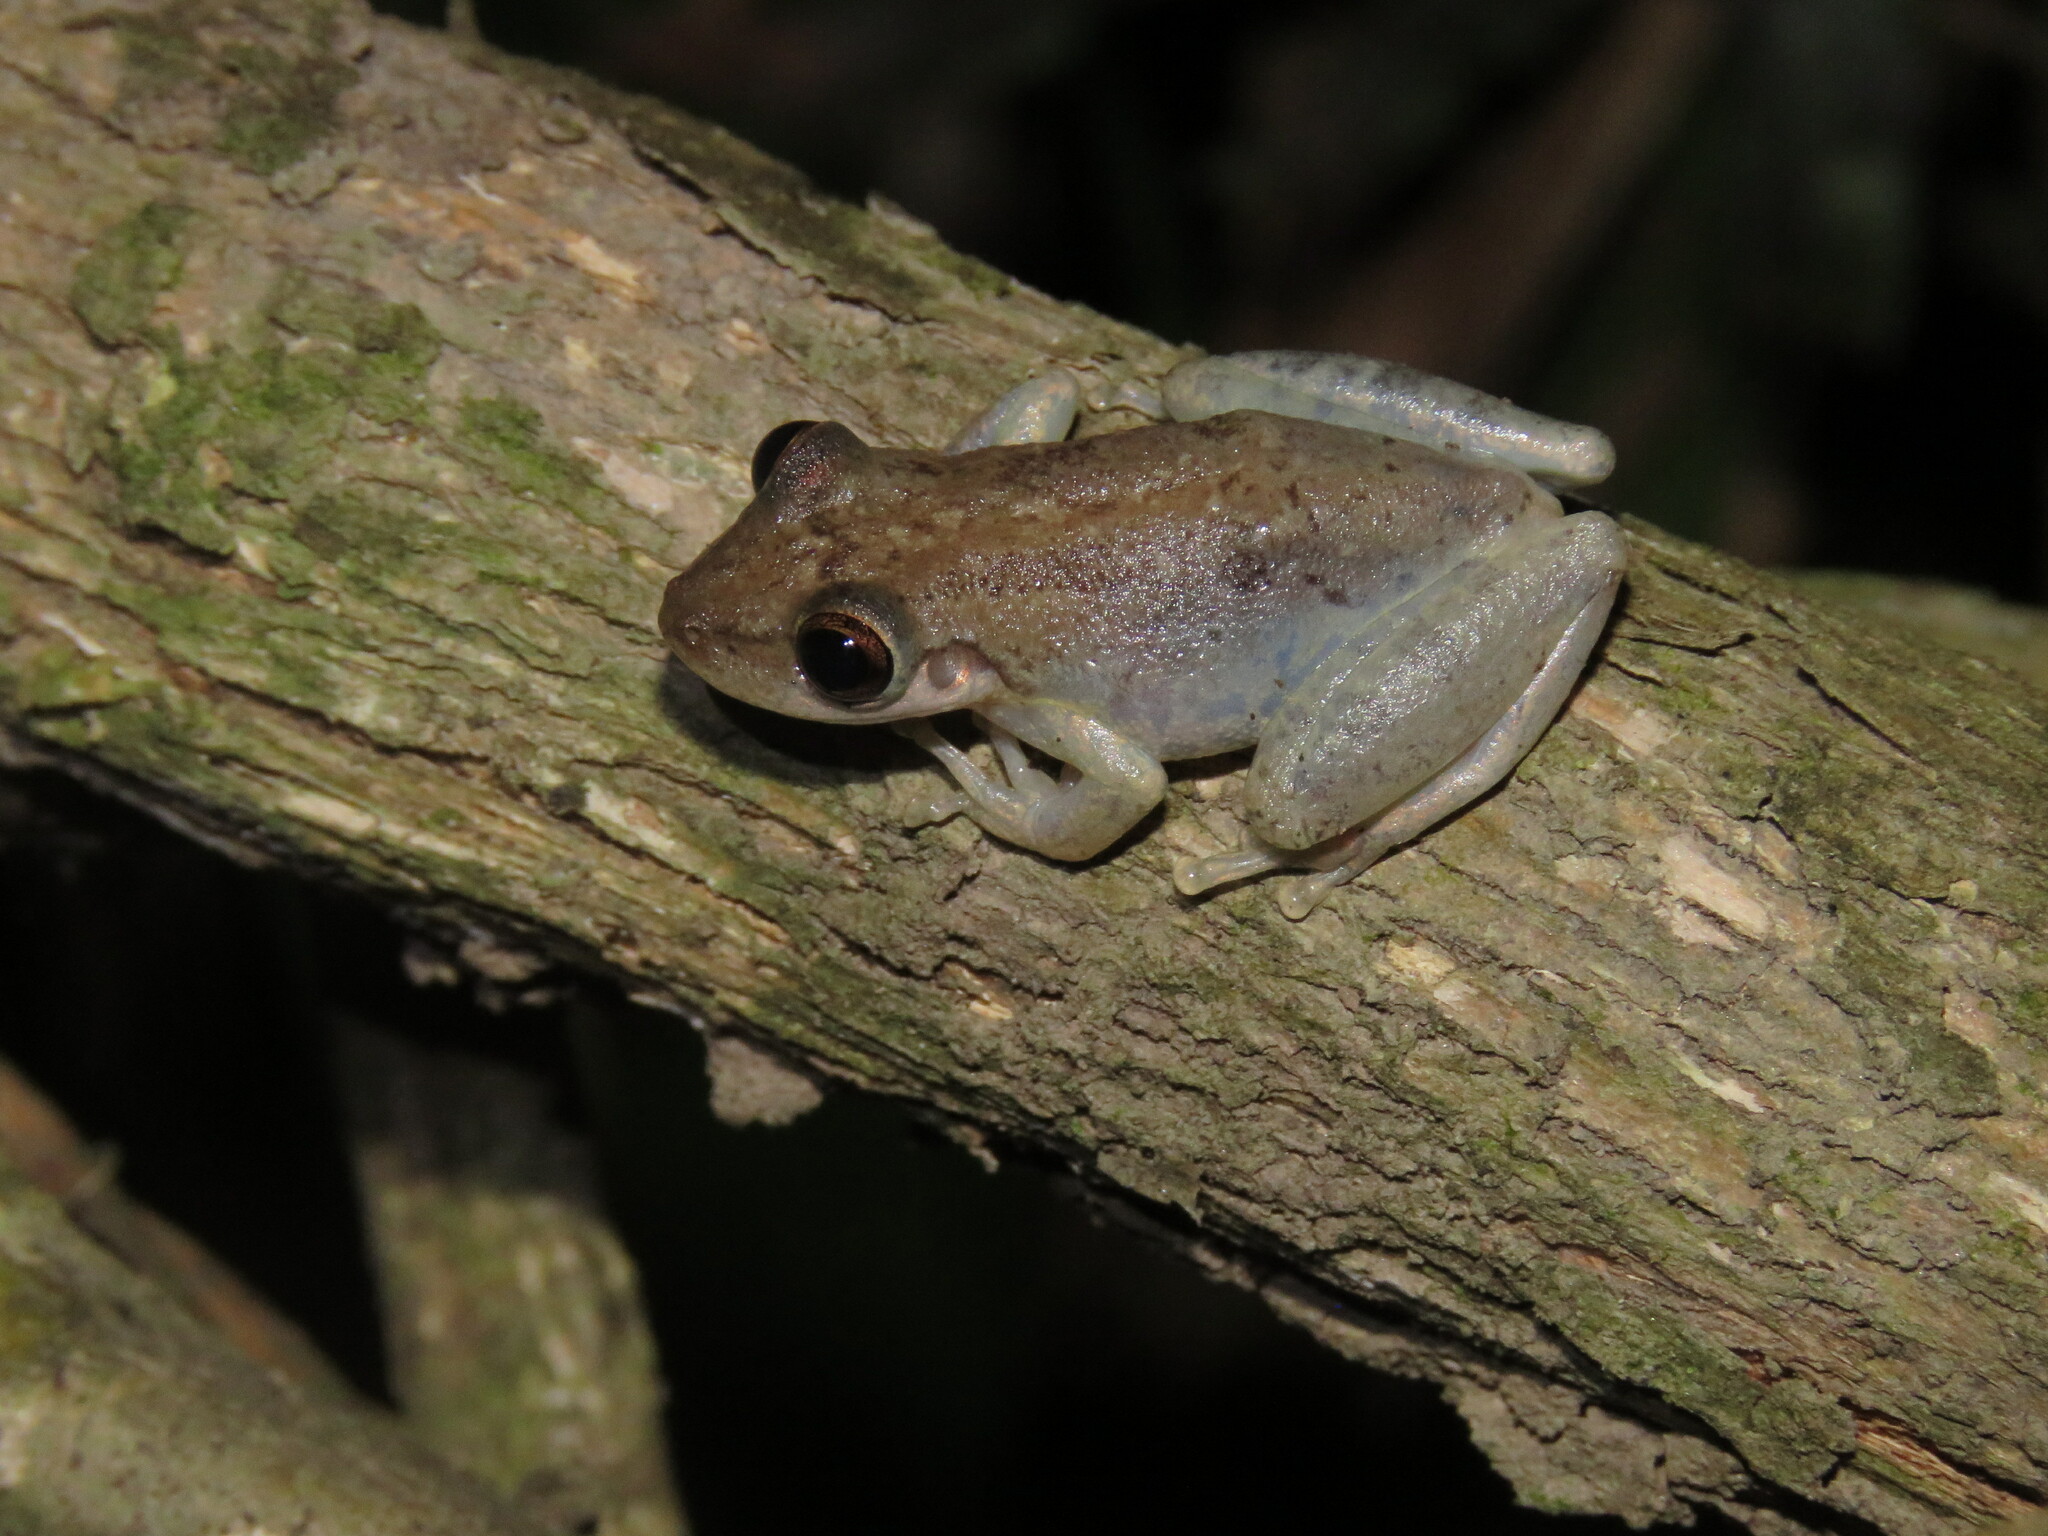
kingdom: Animalia
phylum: Chordata
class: Amphibia
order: Anura
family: Hylidae
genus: Scinax
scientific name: Scinax ruber
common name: Red snouted treefrog
